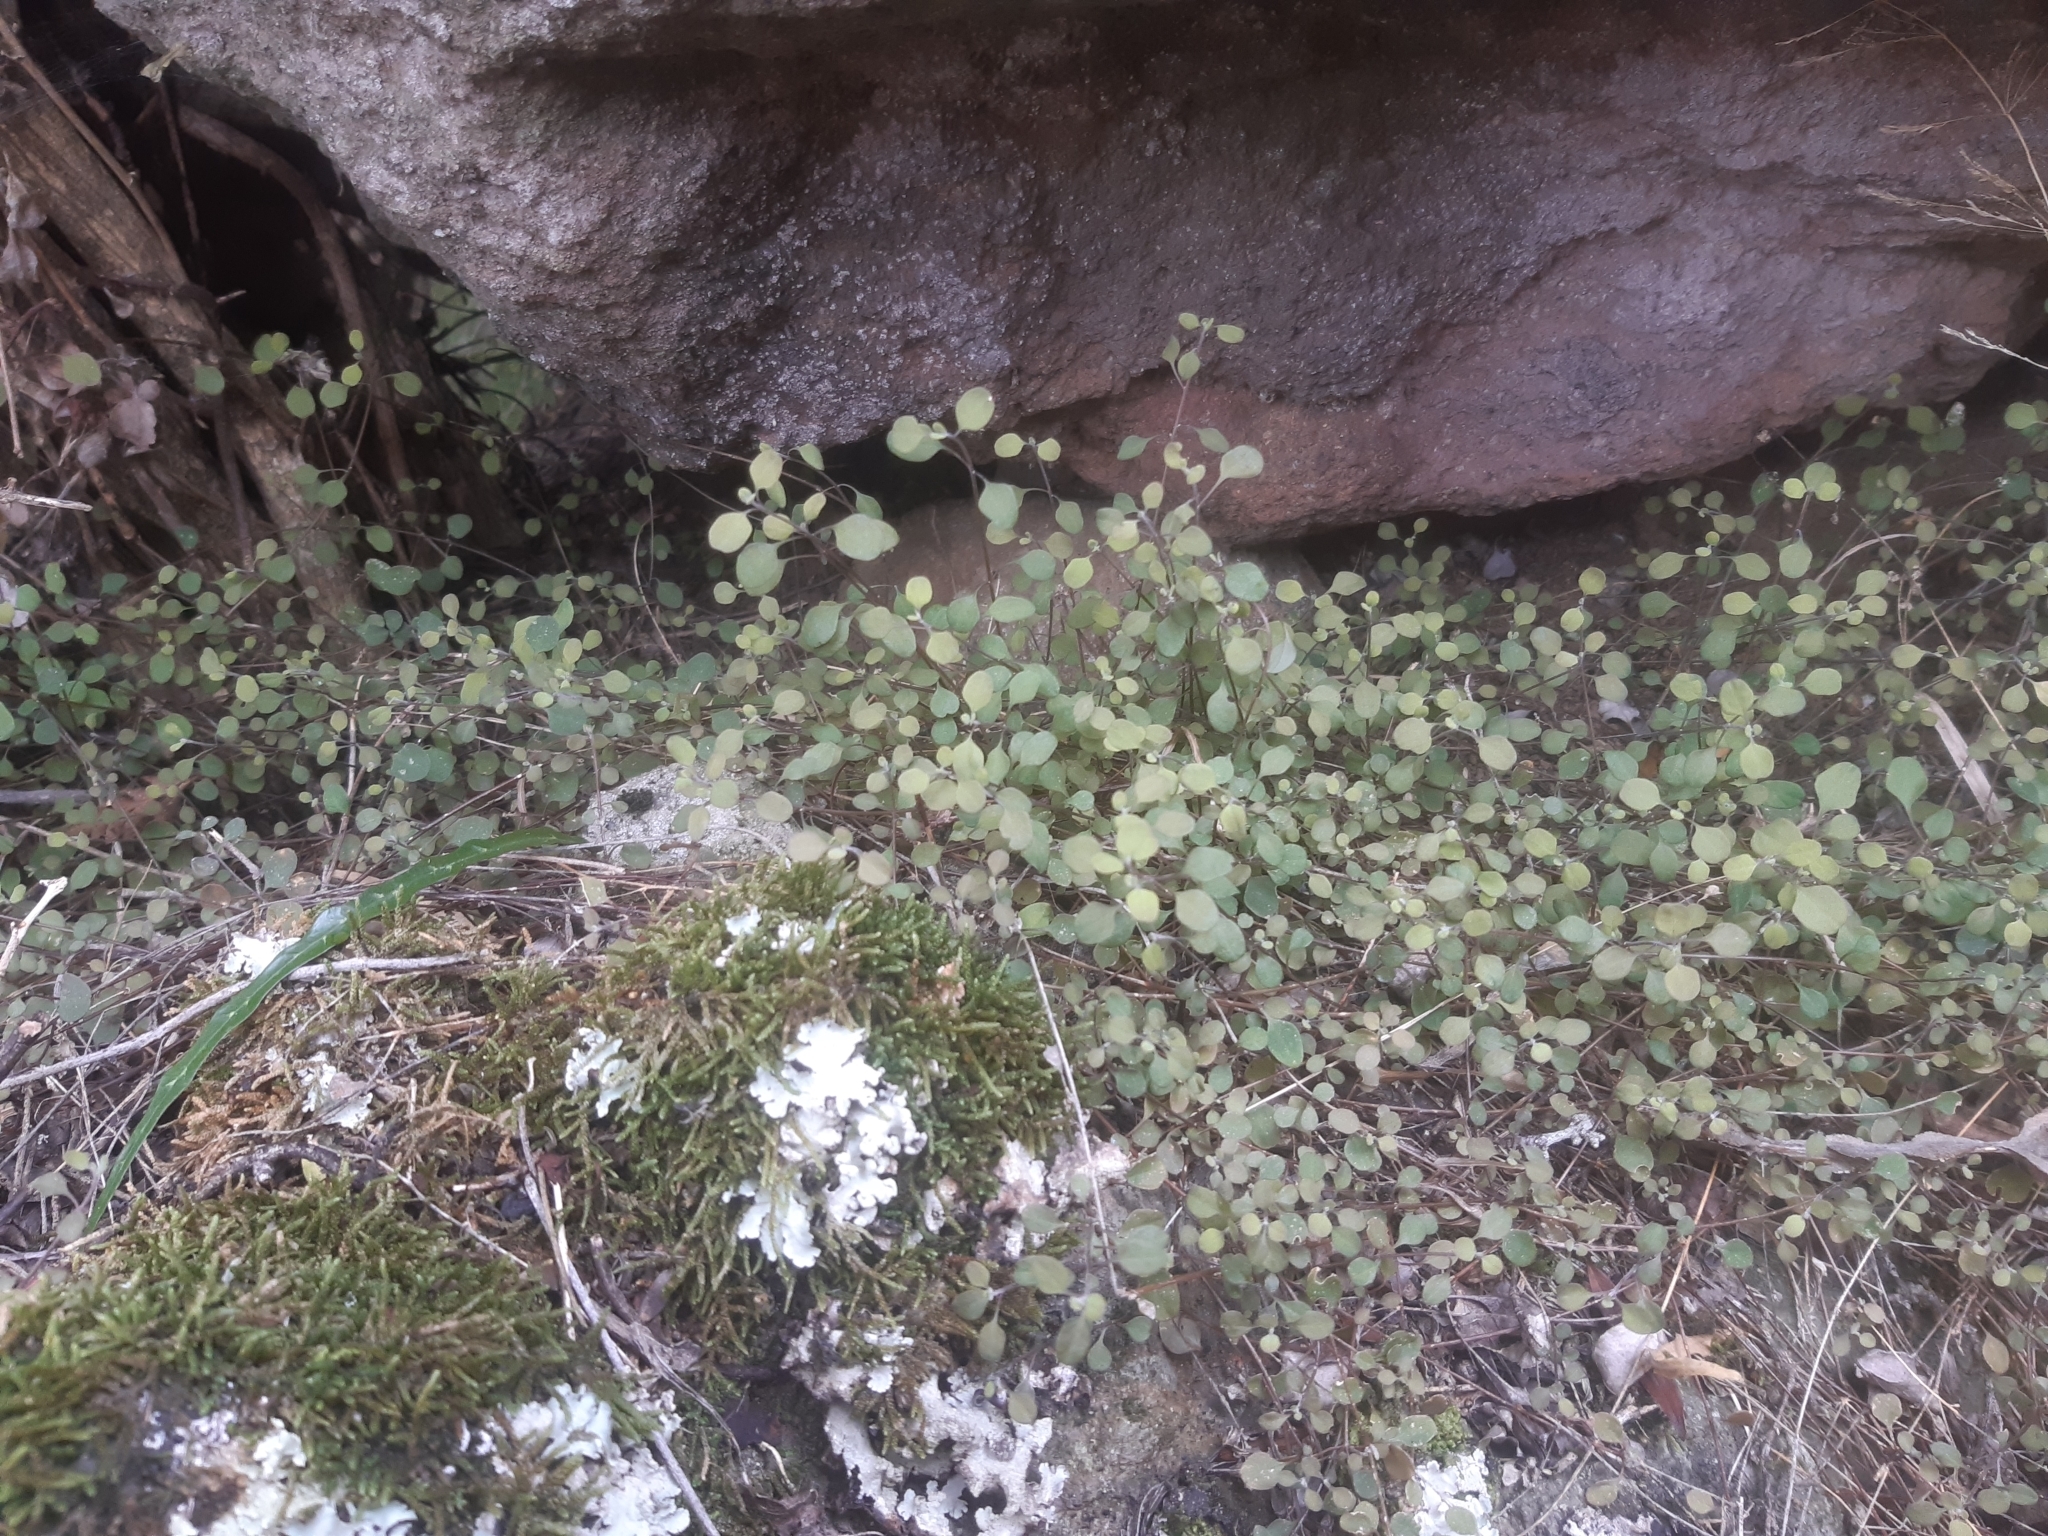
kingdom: Plantae
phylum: Tracheophyta
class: Magnoliopsida
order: Caryophyllales
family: Amaranthaceae
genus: Chenopodium
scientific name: Chenopodium allanii
